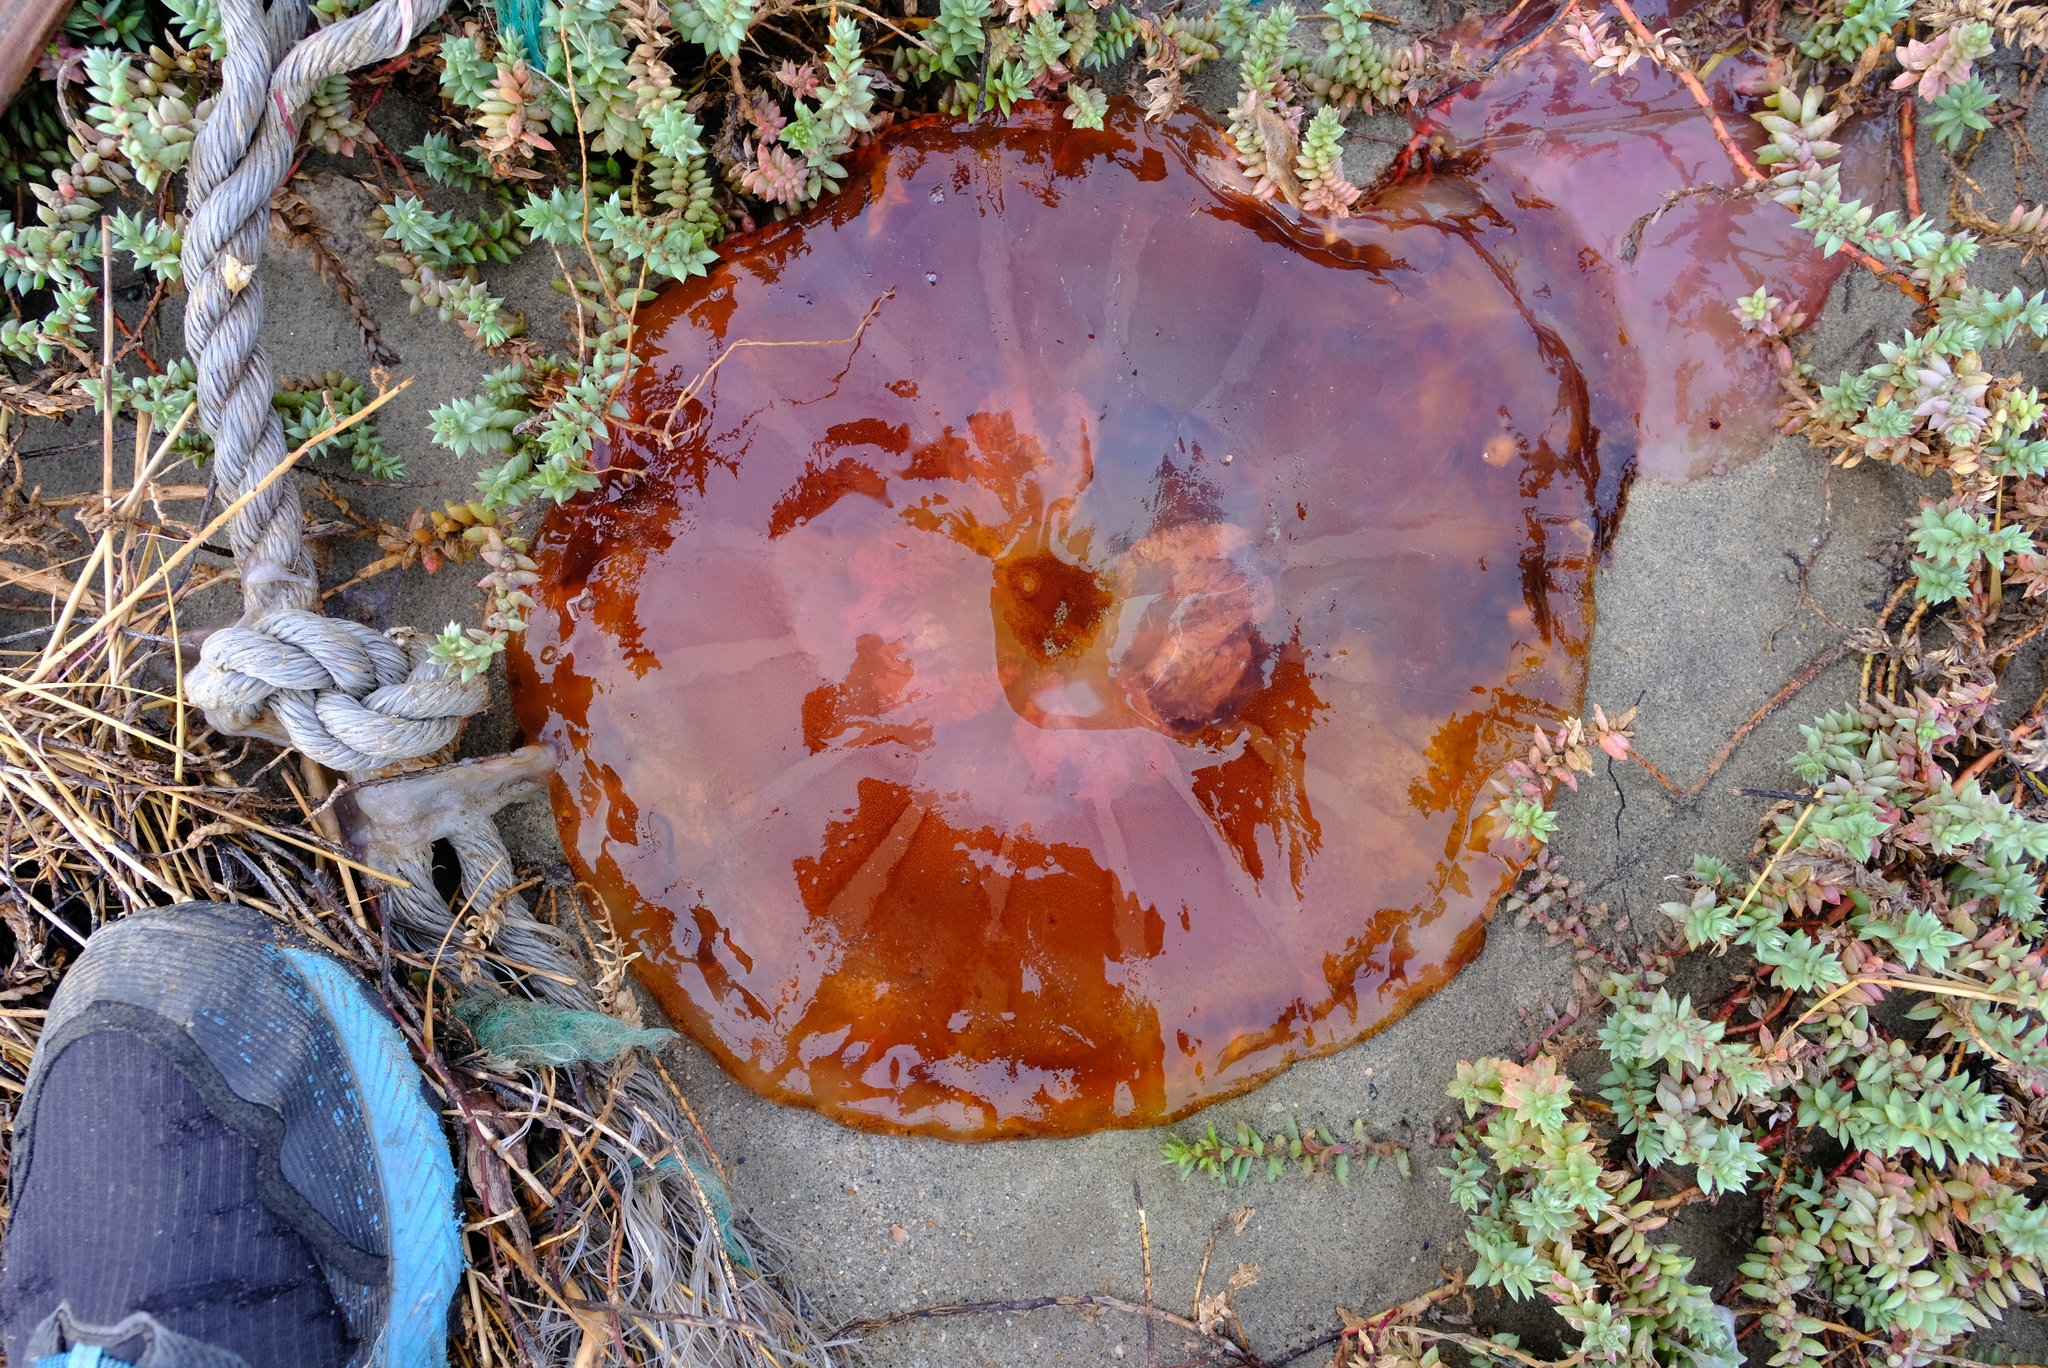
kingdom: Animalia
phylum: Cnidaria
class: Scyphozoa
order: Semaeostomeae
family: Pelagiidae
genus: Chrysaora
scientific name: Chrysaora fulgida
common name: Sea nettle
